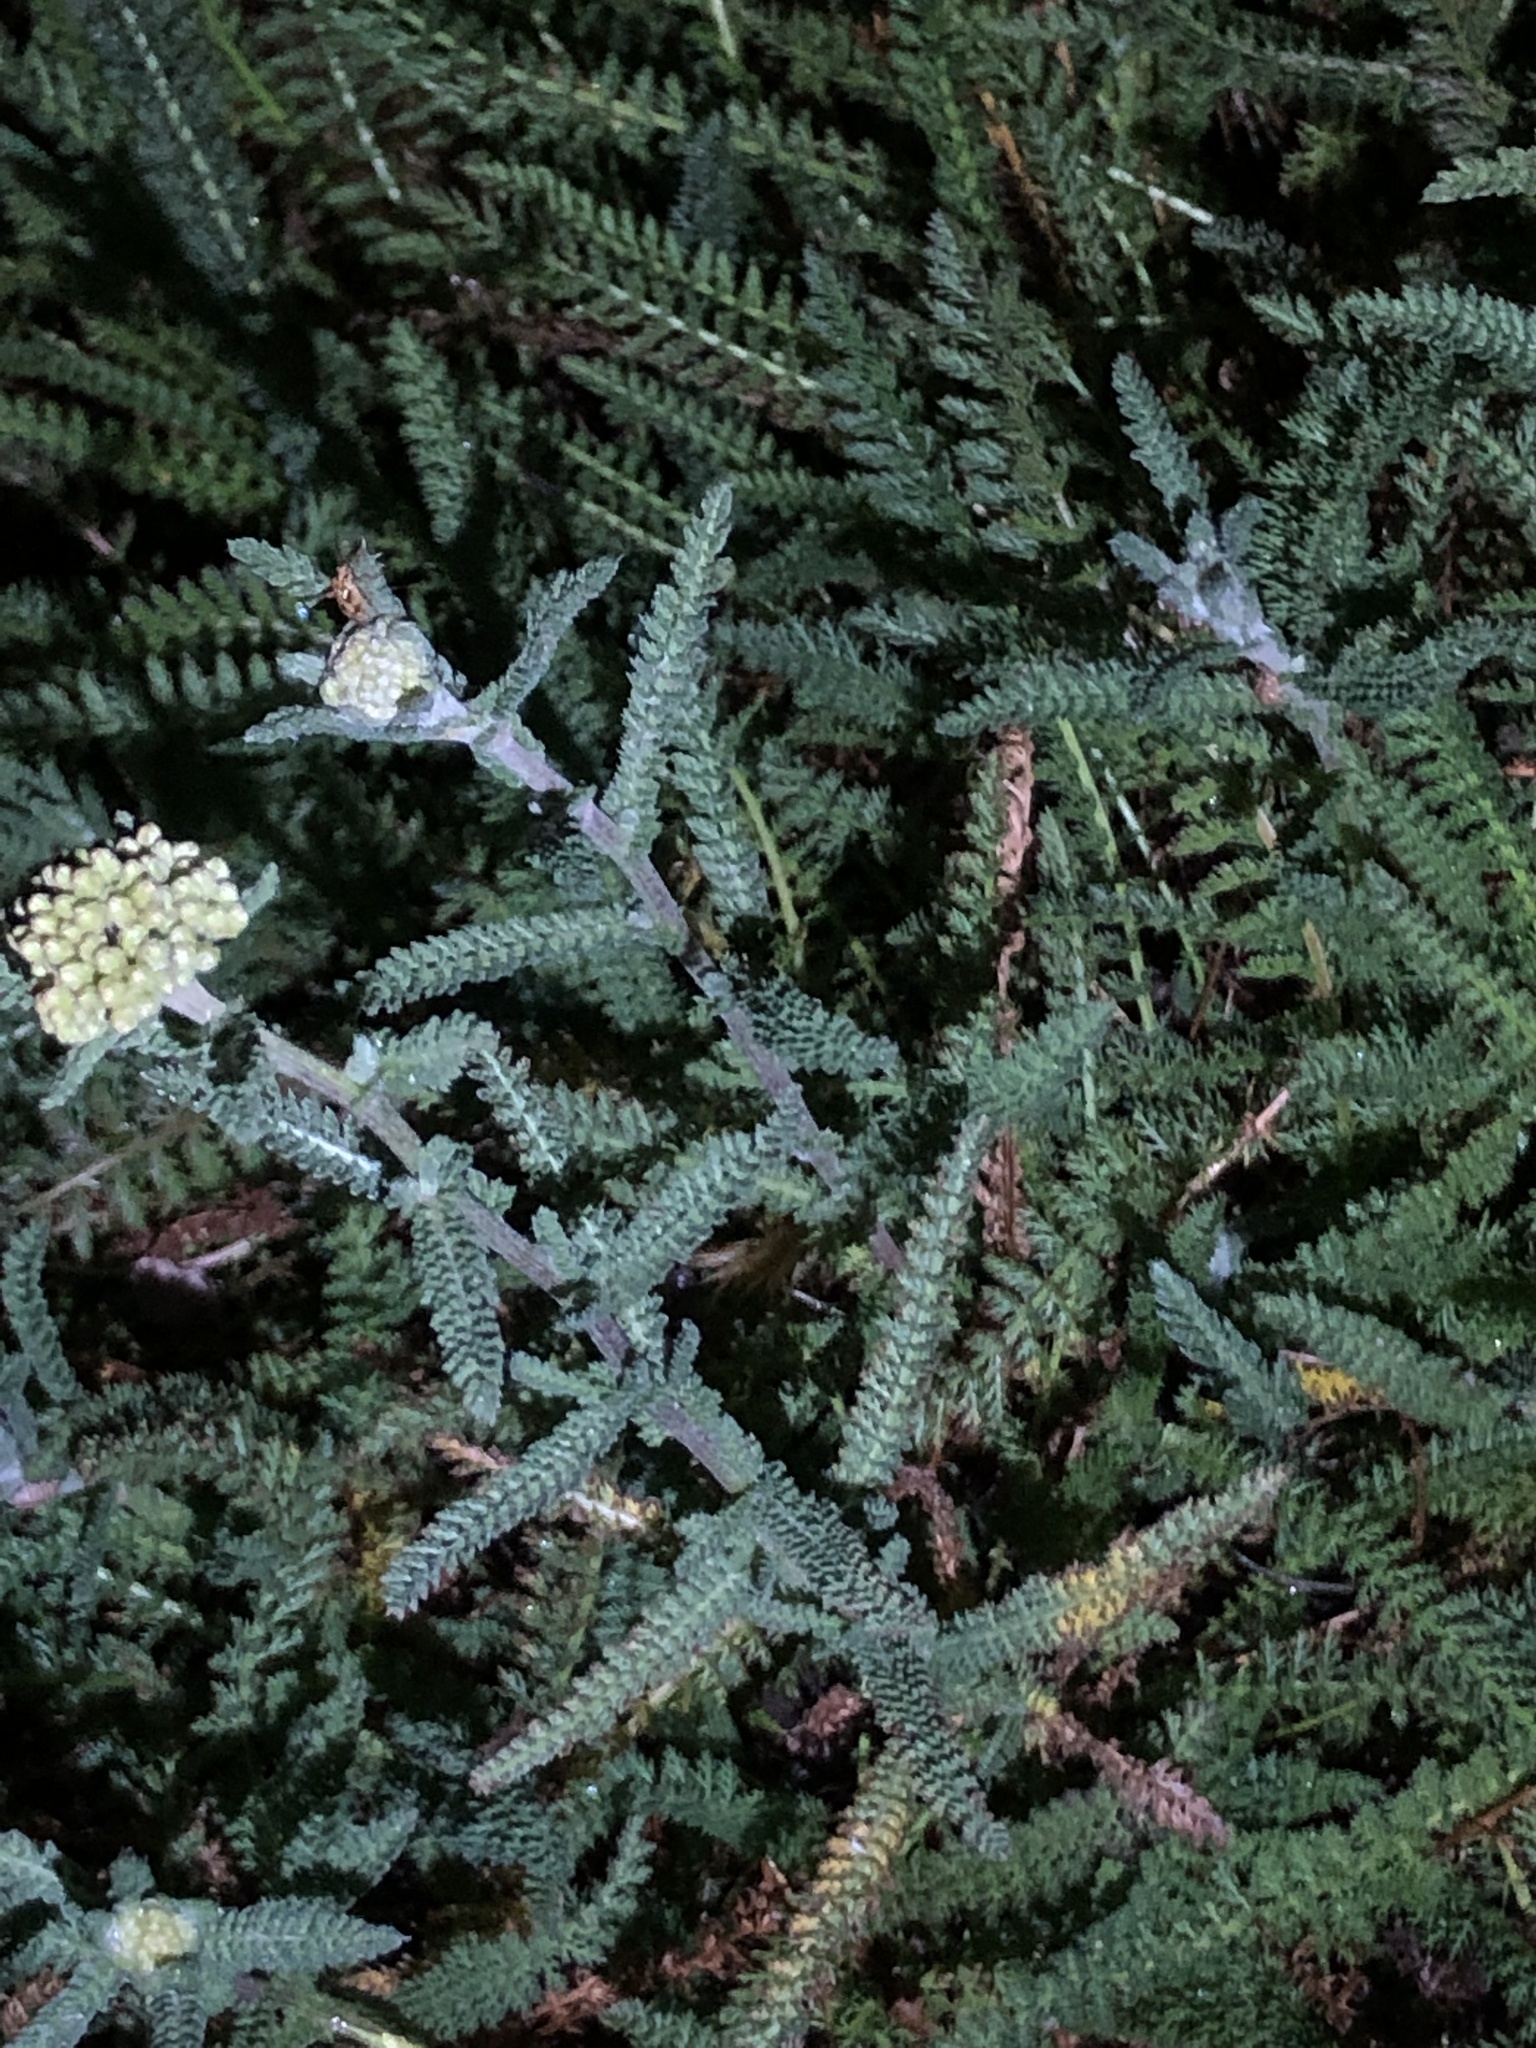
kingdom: Plantae
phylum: Tracheophyta
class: Magnoliopsida
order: Asterales
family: Asteraceae
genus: Achillea
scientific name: Achillea millefolium
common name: Yarrow
